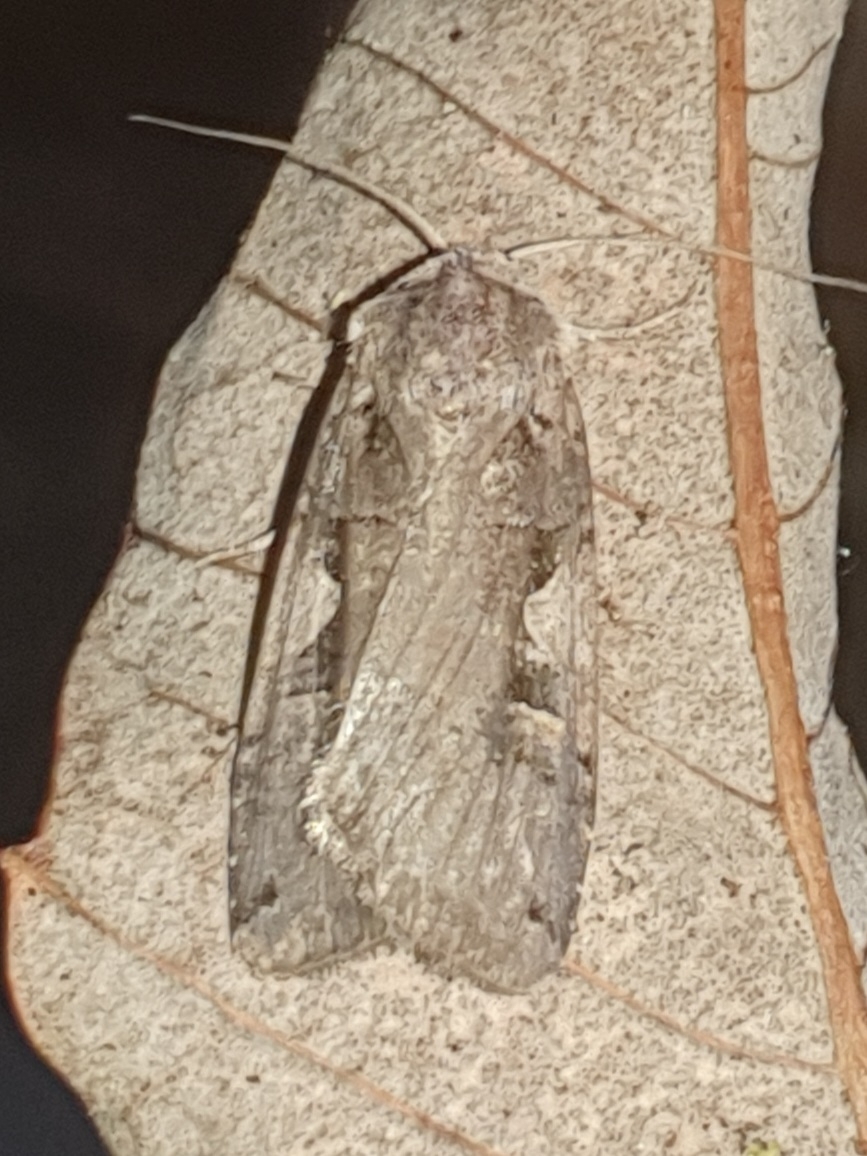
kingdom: Animalia
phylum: Arthropoda
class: Insecta
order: Lepidoptera
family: Noctuidae
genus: Xestia
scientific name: Xestia c-nigrum
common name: Setaceous hebrew character
